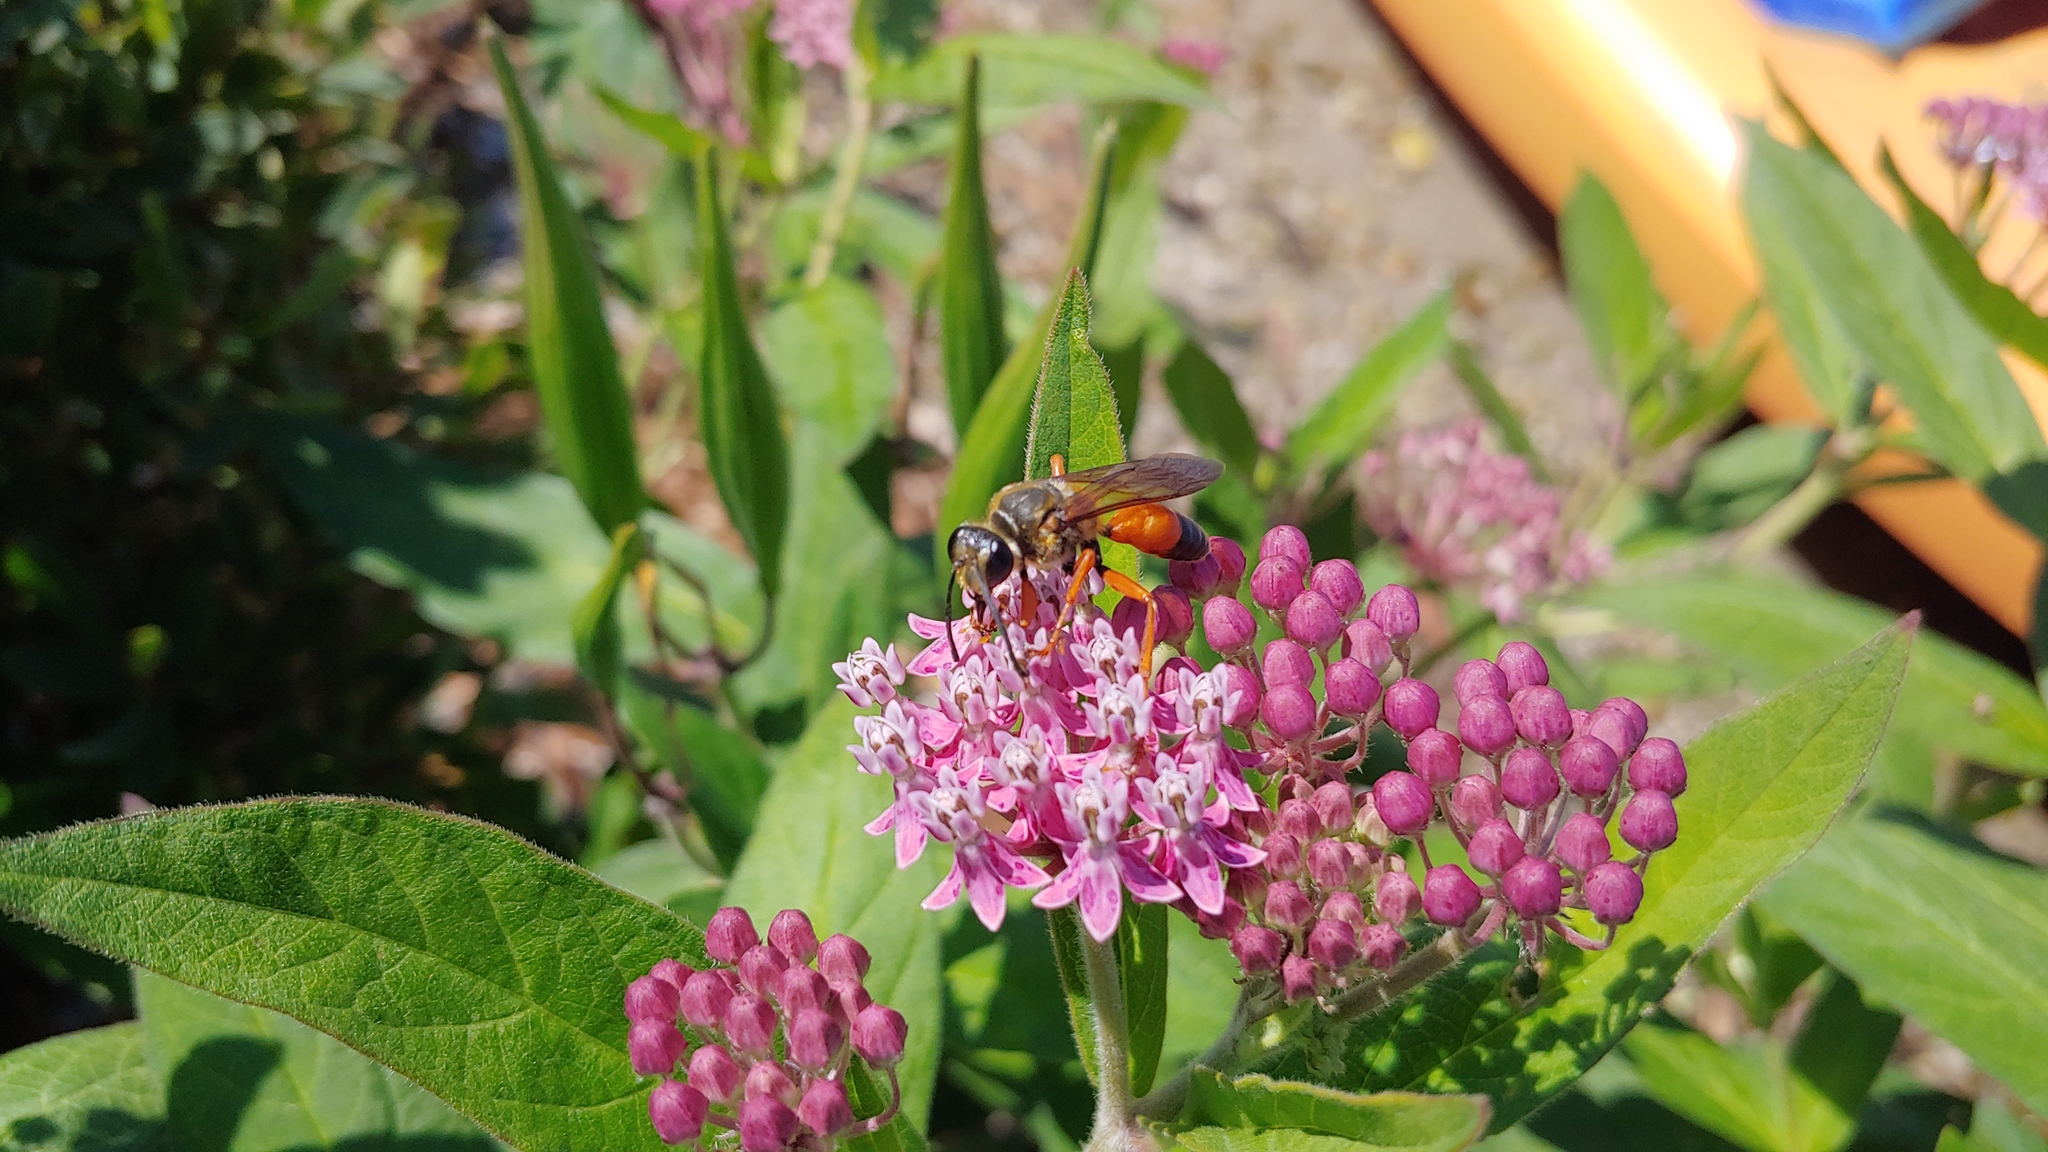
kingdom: Animalia
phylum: Arthropoda
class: Insecta
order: Hymenoptera
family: Sphecidae
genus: Sphex
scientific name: Sphex ichneumoneus
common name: Great golden digger wasp
